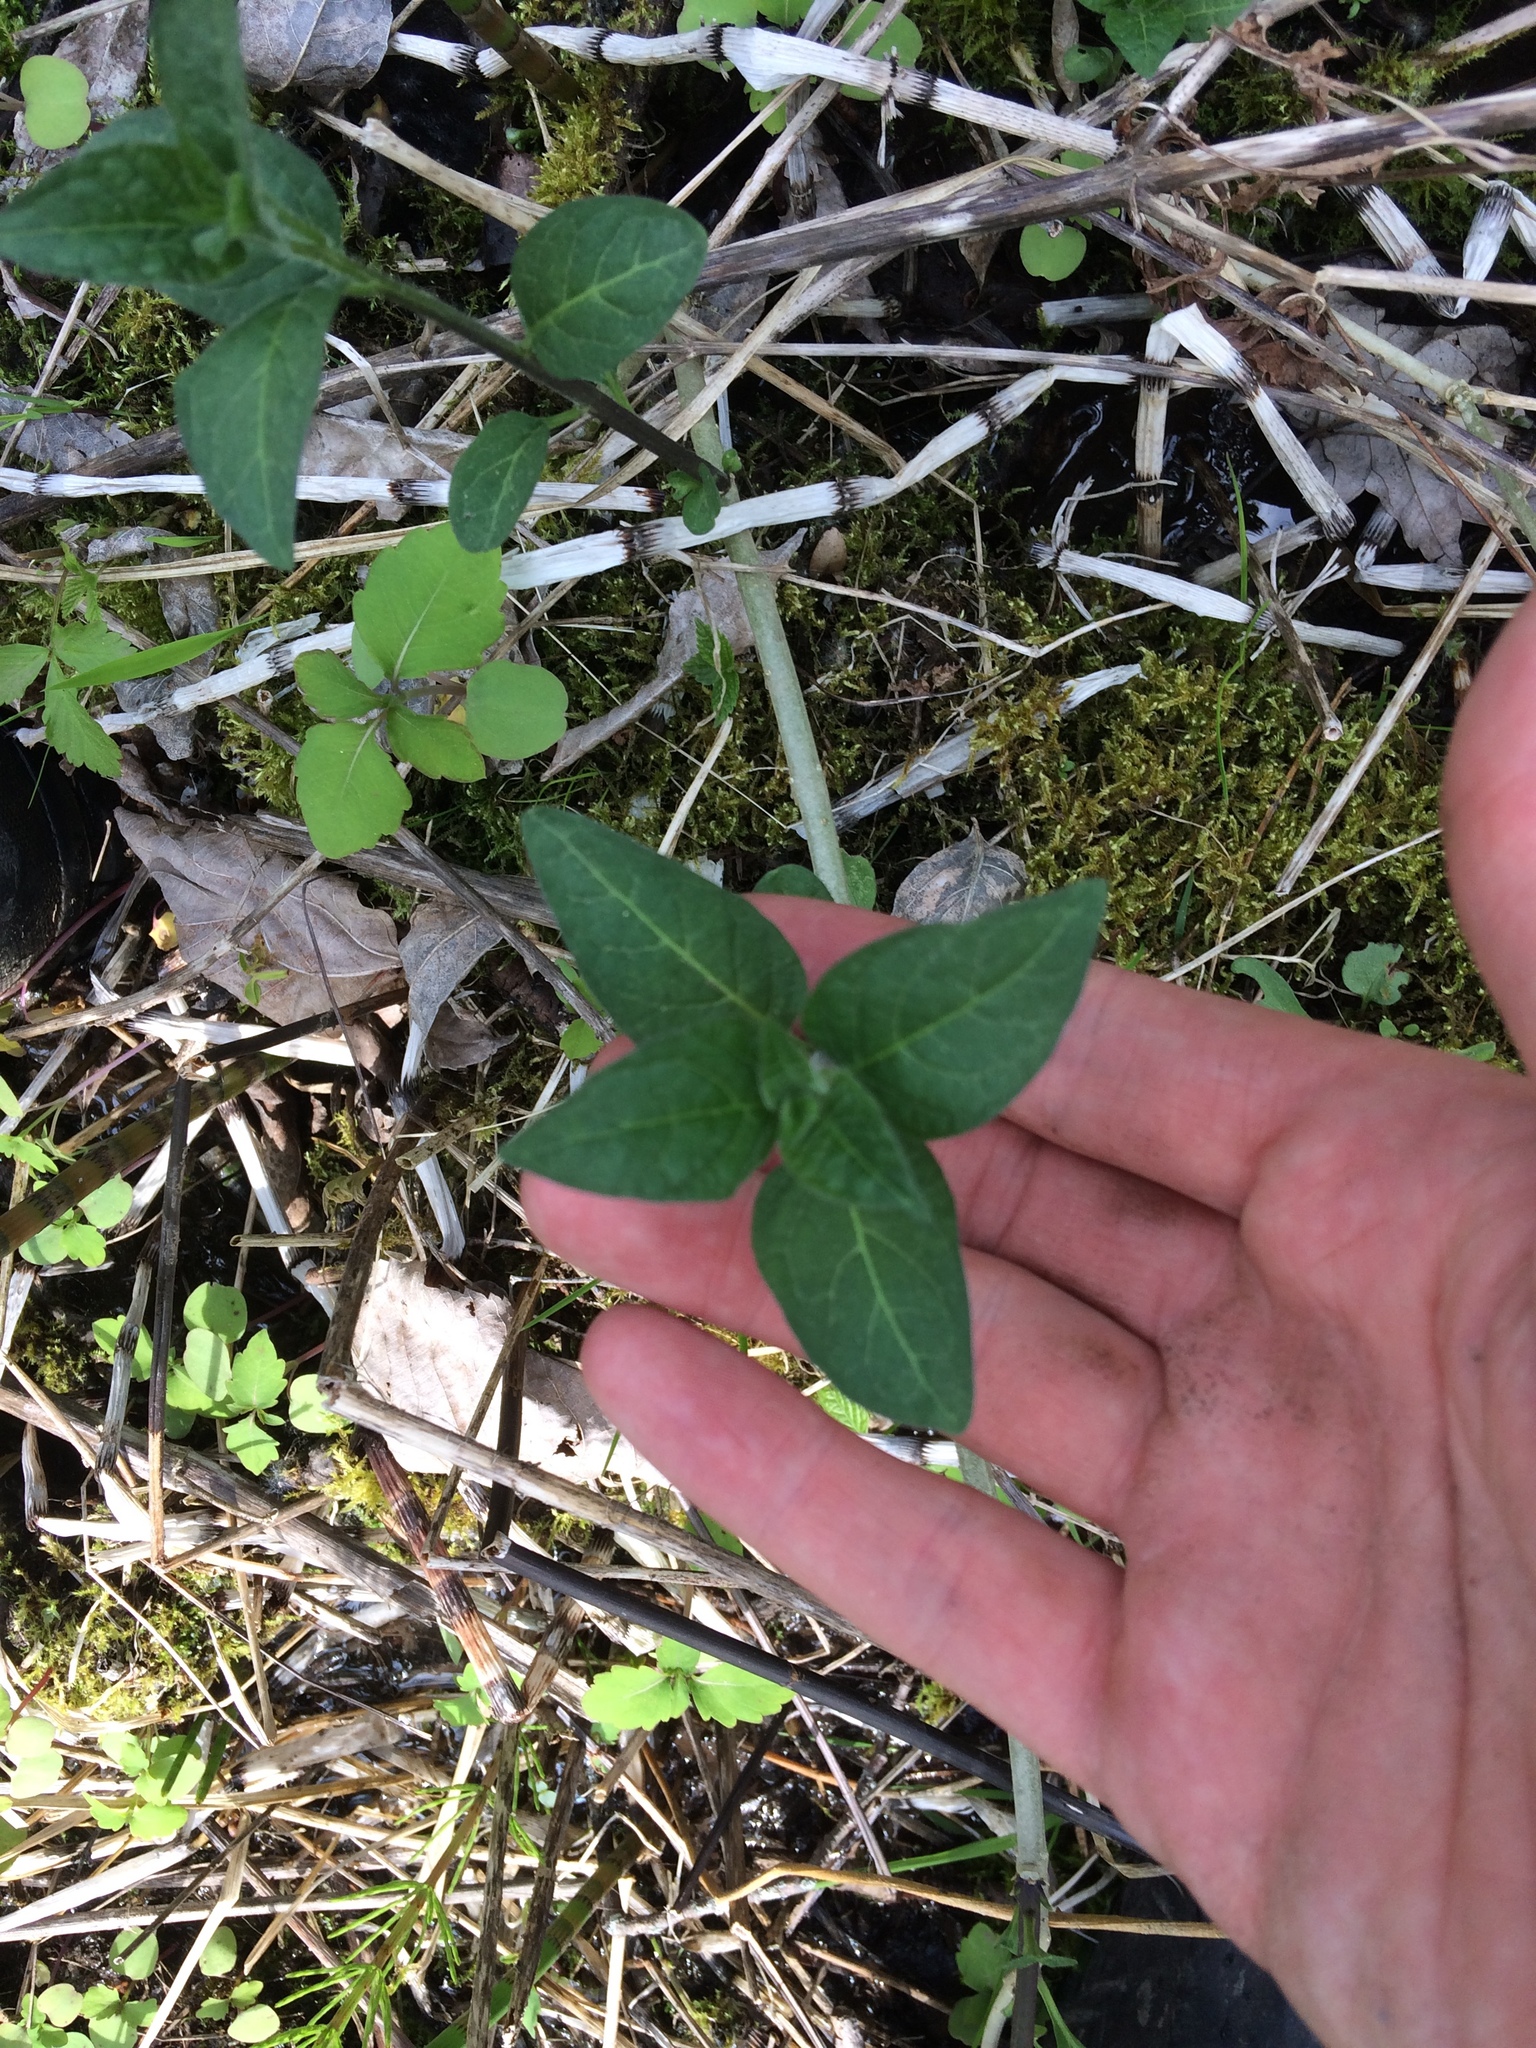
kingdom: Plantae
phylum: Tracheophyta
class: Magnoliopsida
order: Solanales
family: Solanaceae
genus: Solanum
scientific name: Solanum dulcamara
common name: Climbing nightshade
